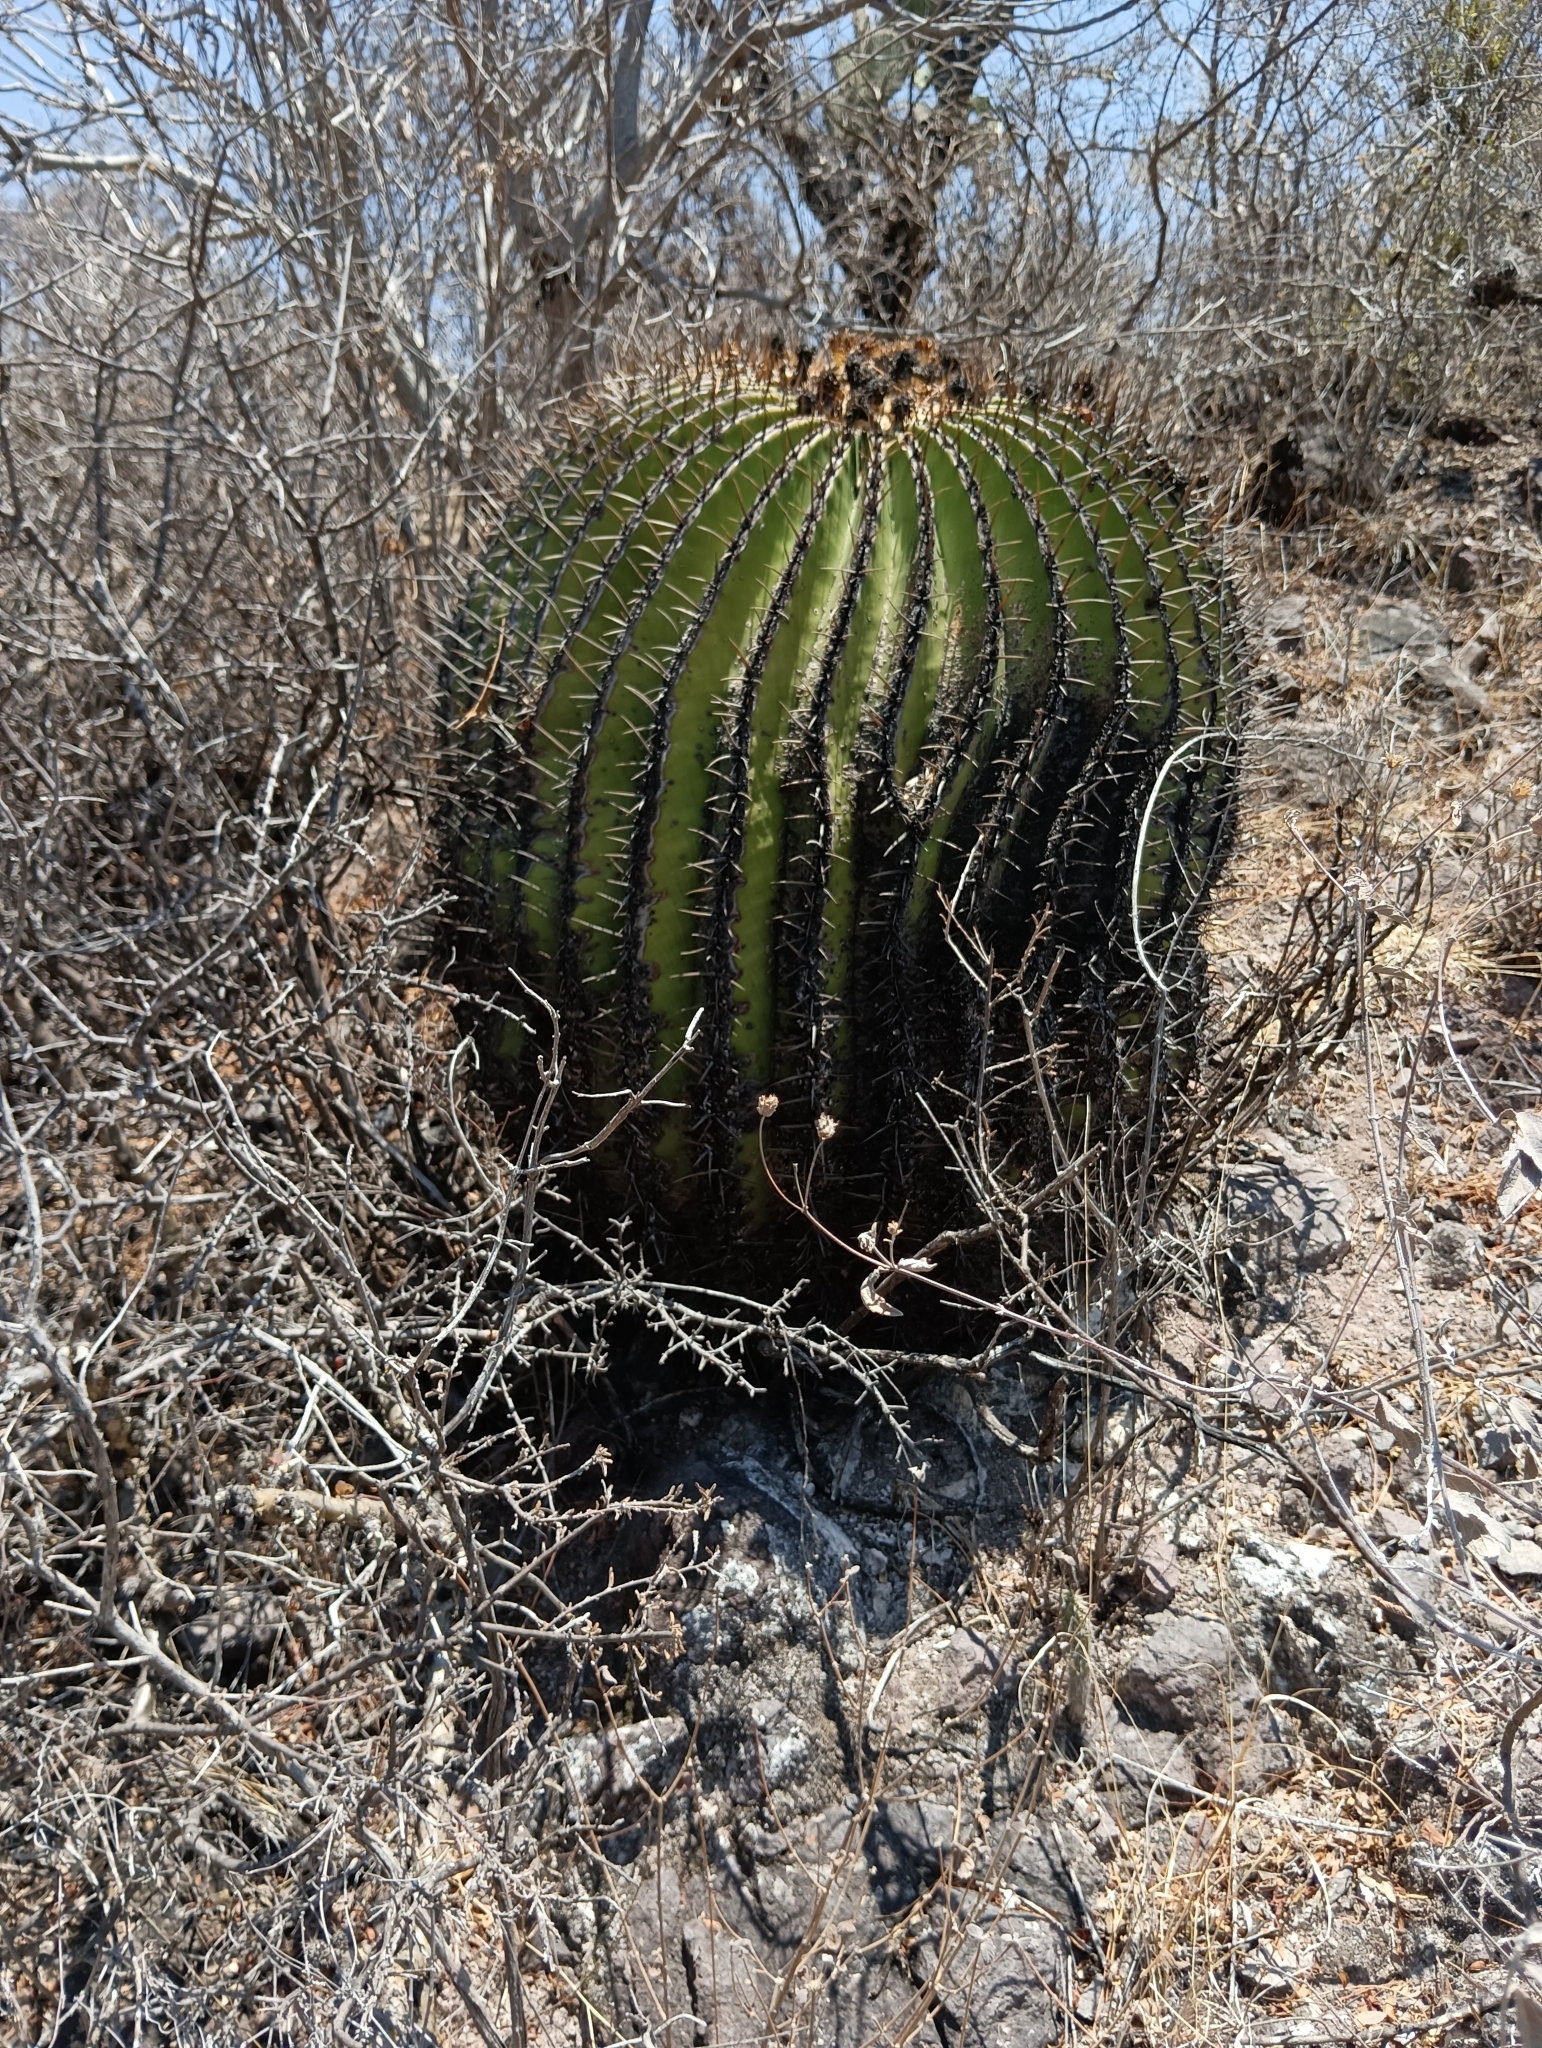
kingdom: Plantae
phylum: Tracheophyta
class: Magnoliopsida
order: Caryophyllales
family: Cactaceae
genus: Echinocactus
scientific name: Echinocactus platyacanthus
